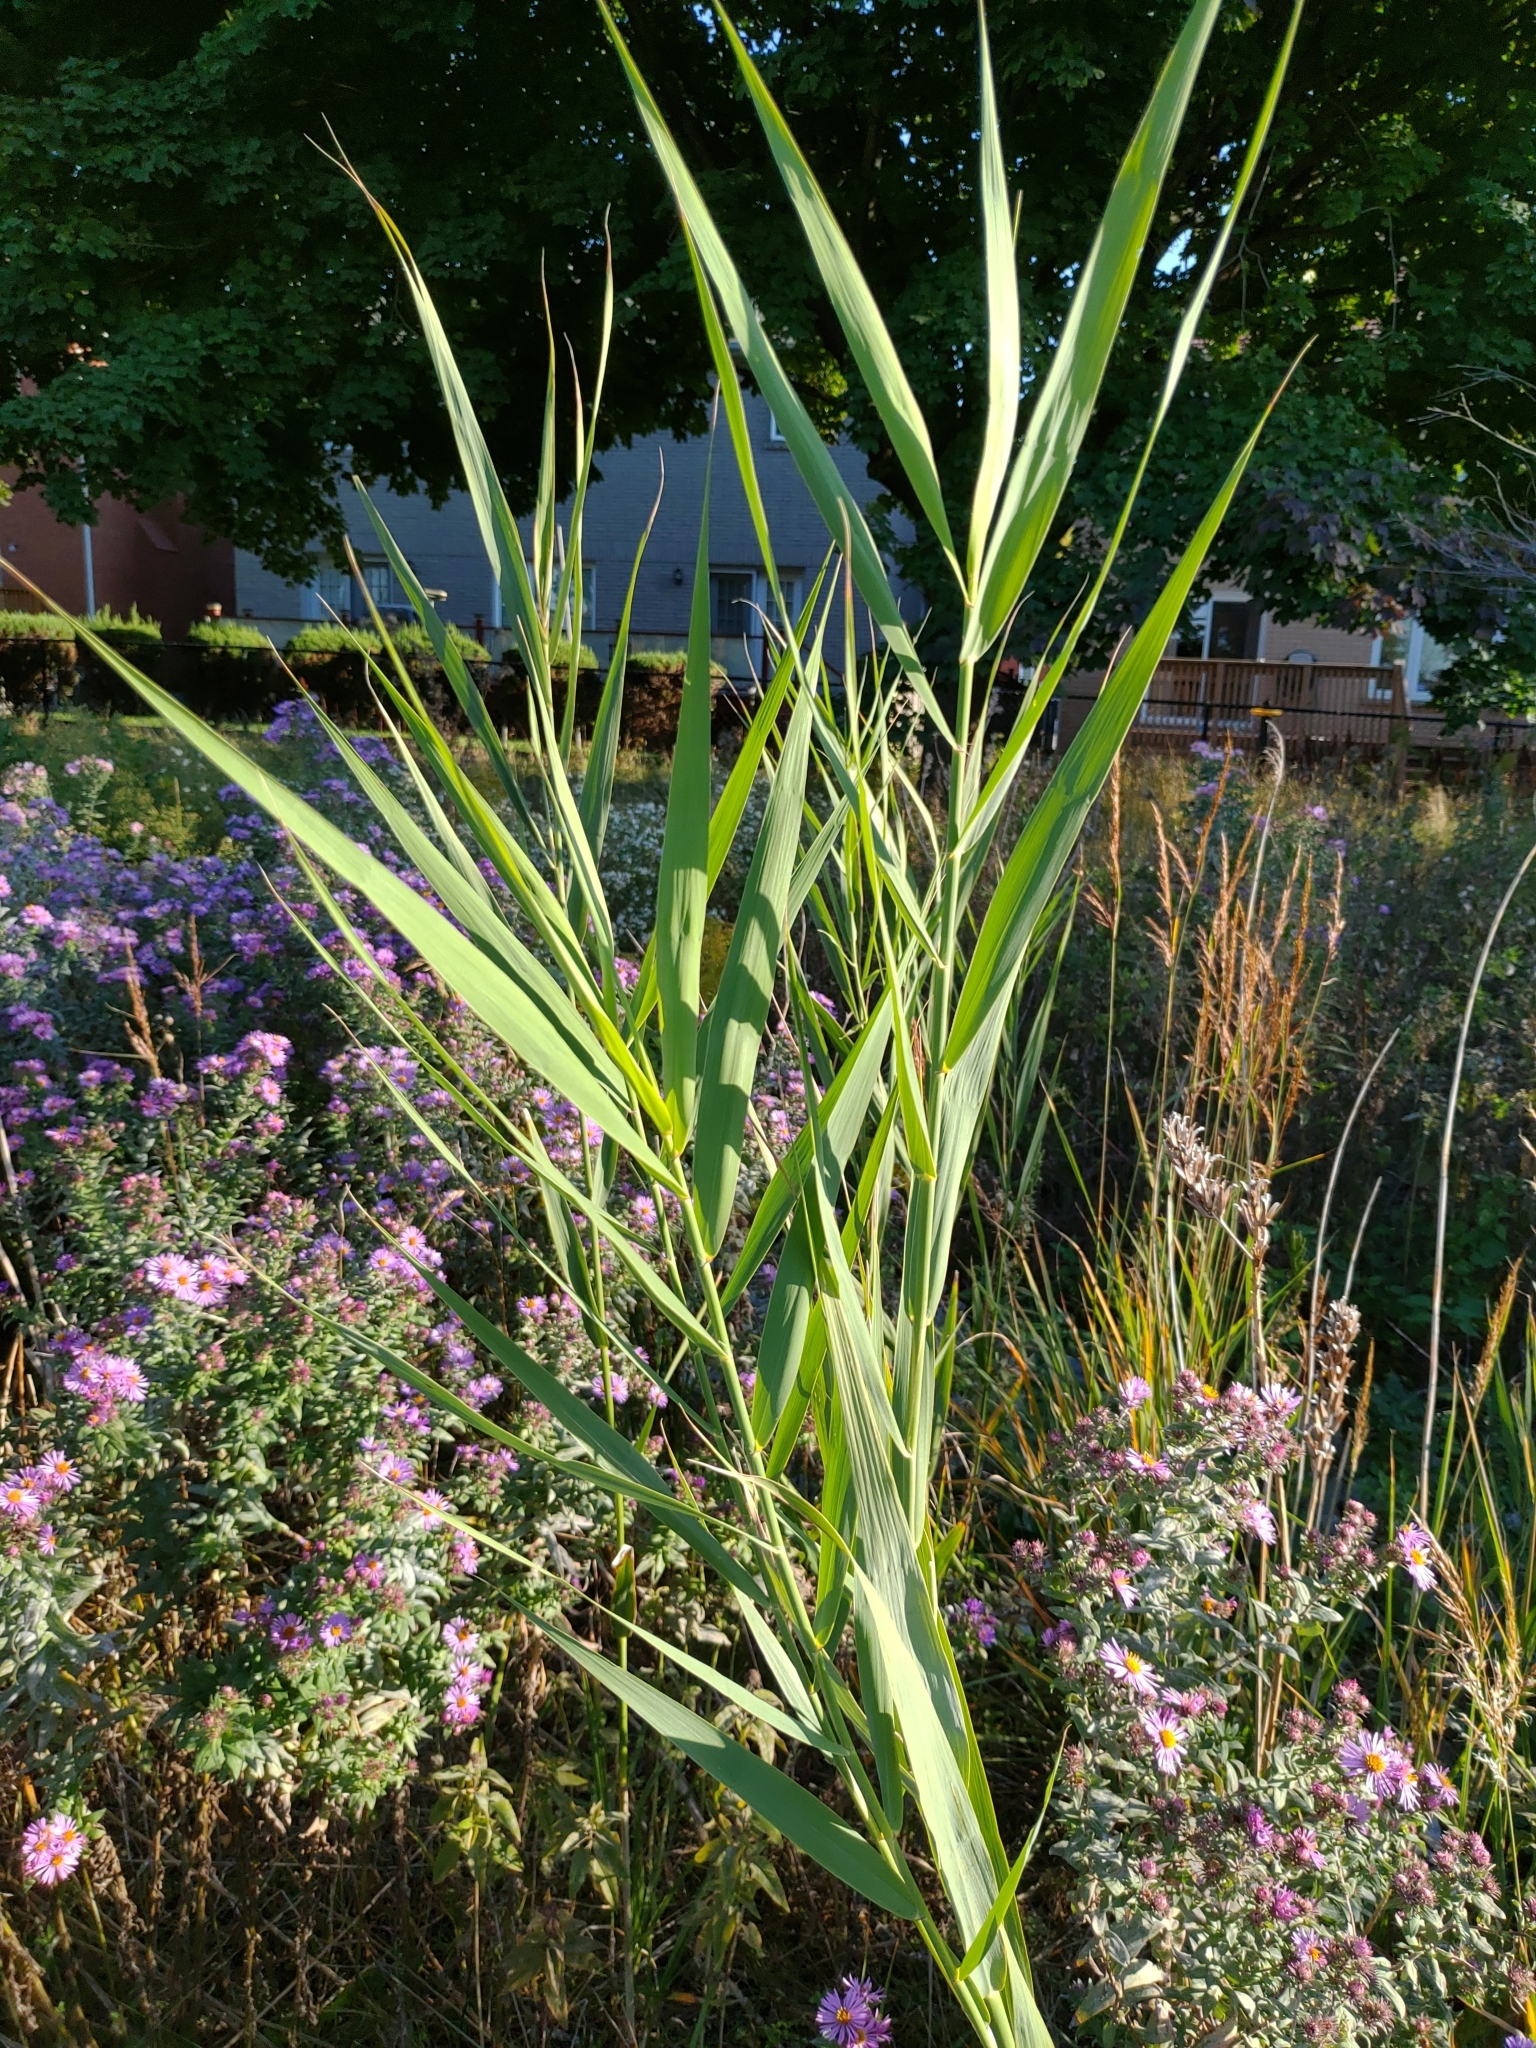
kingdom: Plantae
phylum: Tracheophyta
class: Liliopsida
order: Poales
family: Poaceae
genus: Phragmites
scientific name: Phragmites australis
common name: Common reed
